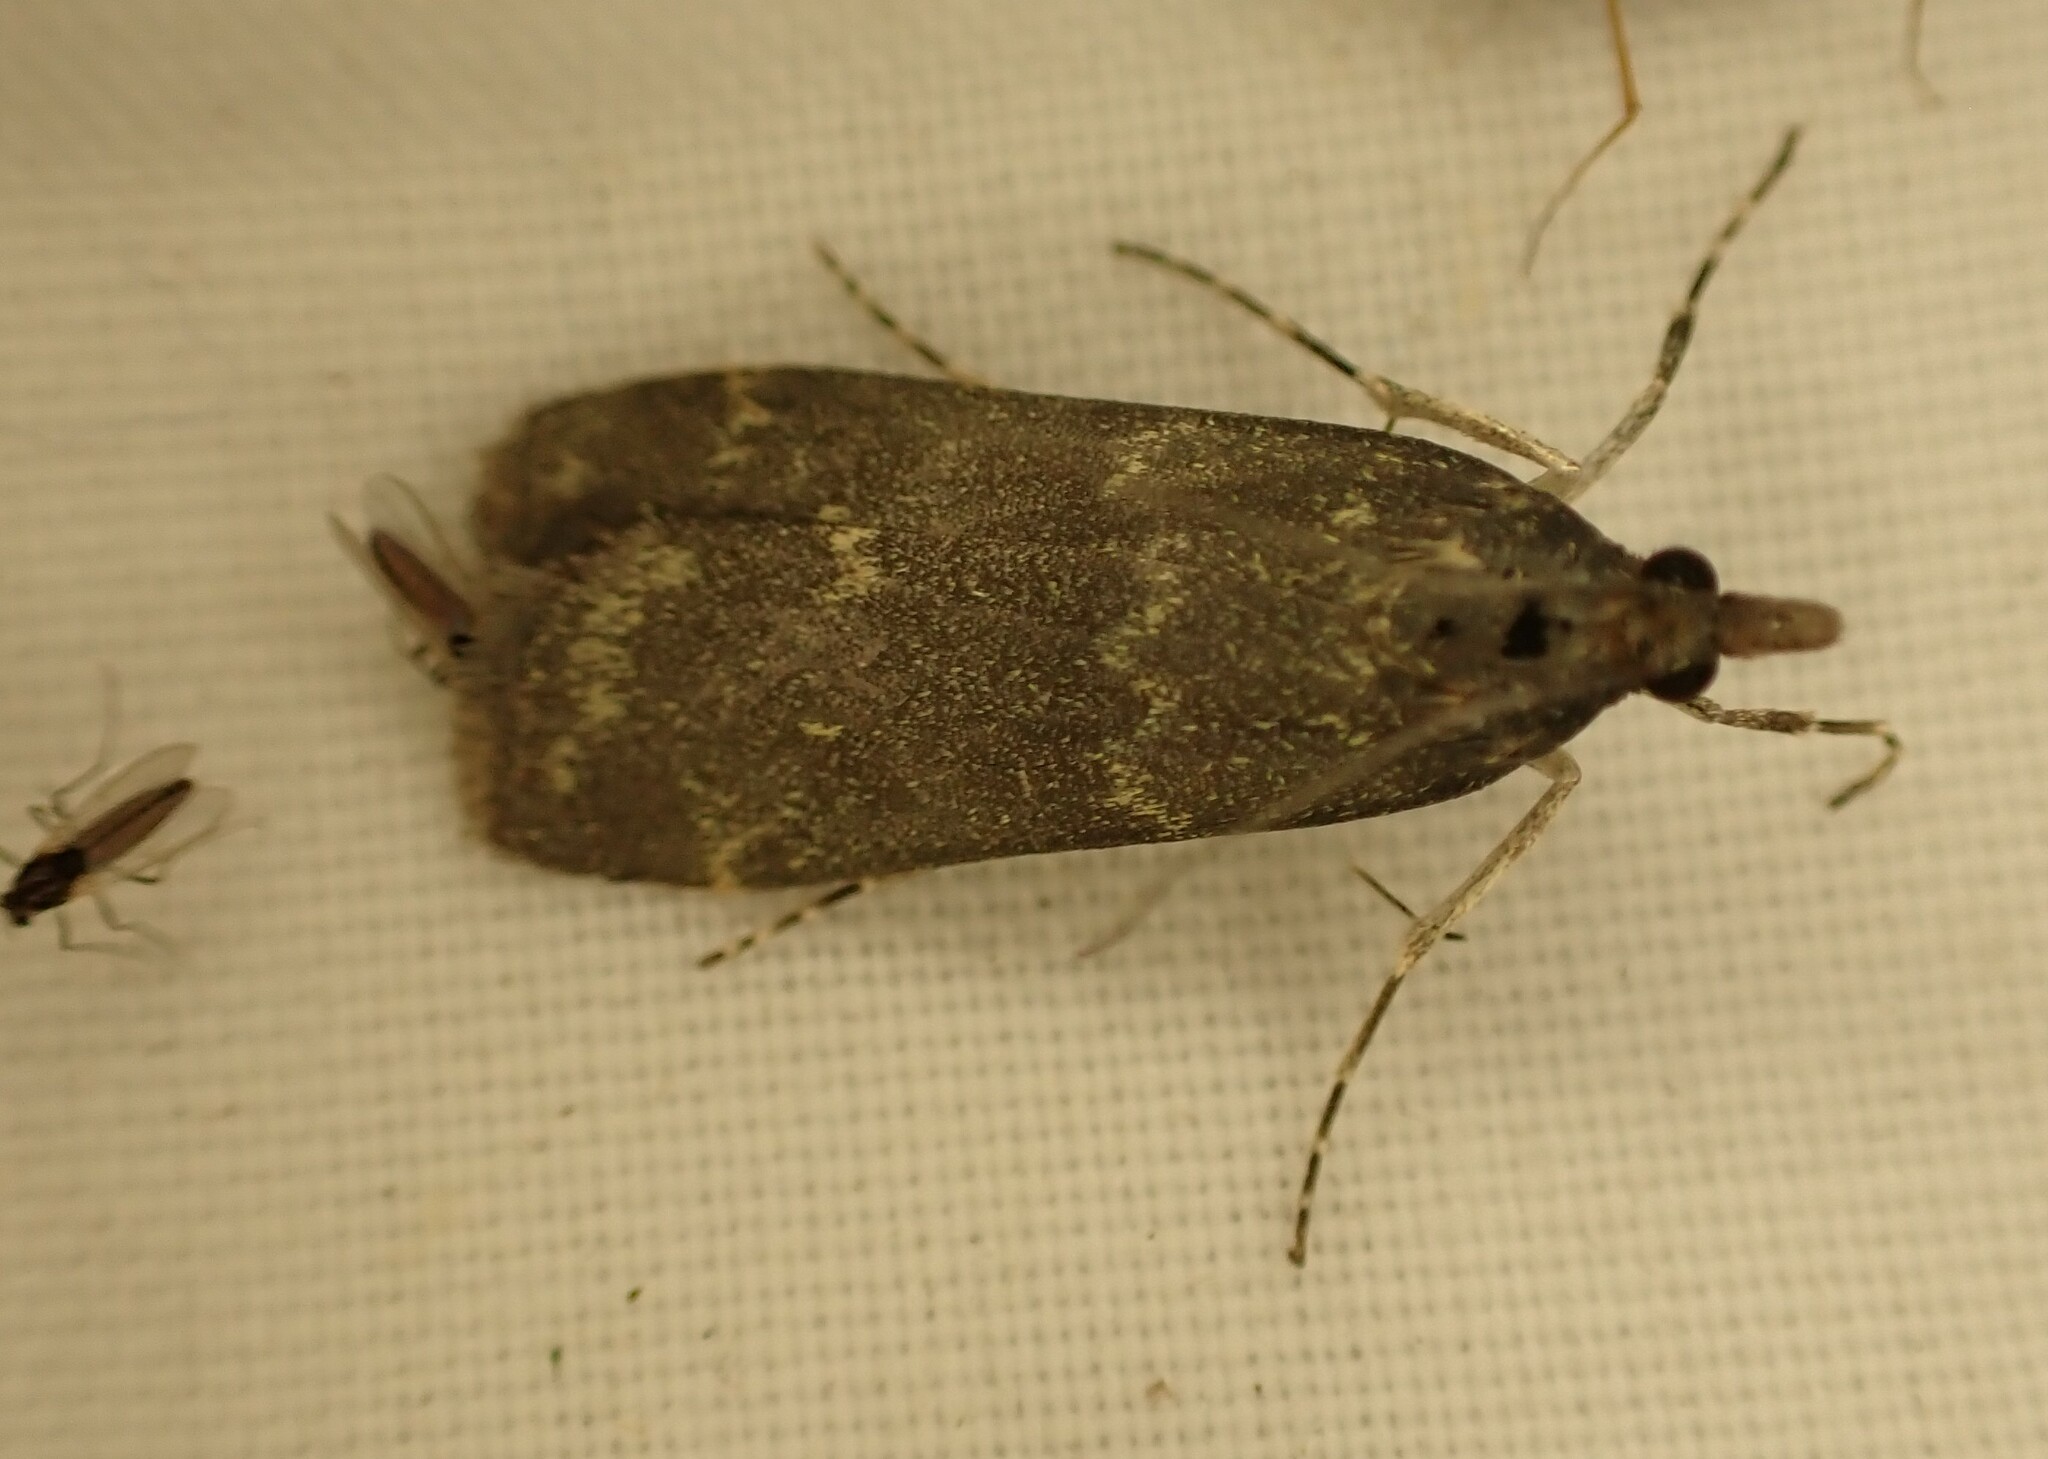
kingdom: Animalia
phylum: Arthropoda
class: Insecta
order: Lepidoptera
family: Crambidae
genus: Eudonia
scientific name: Eudonia cataxesta
